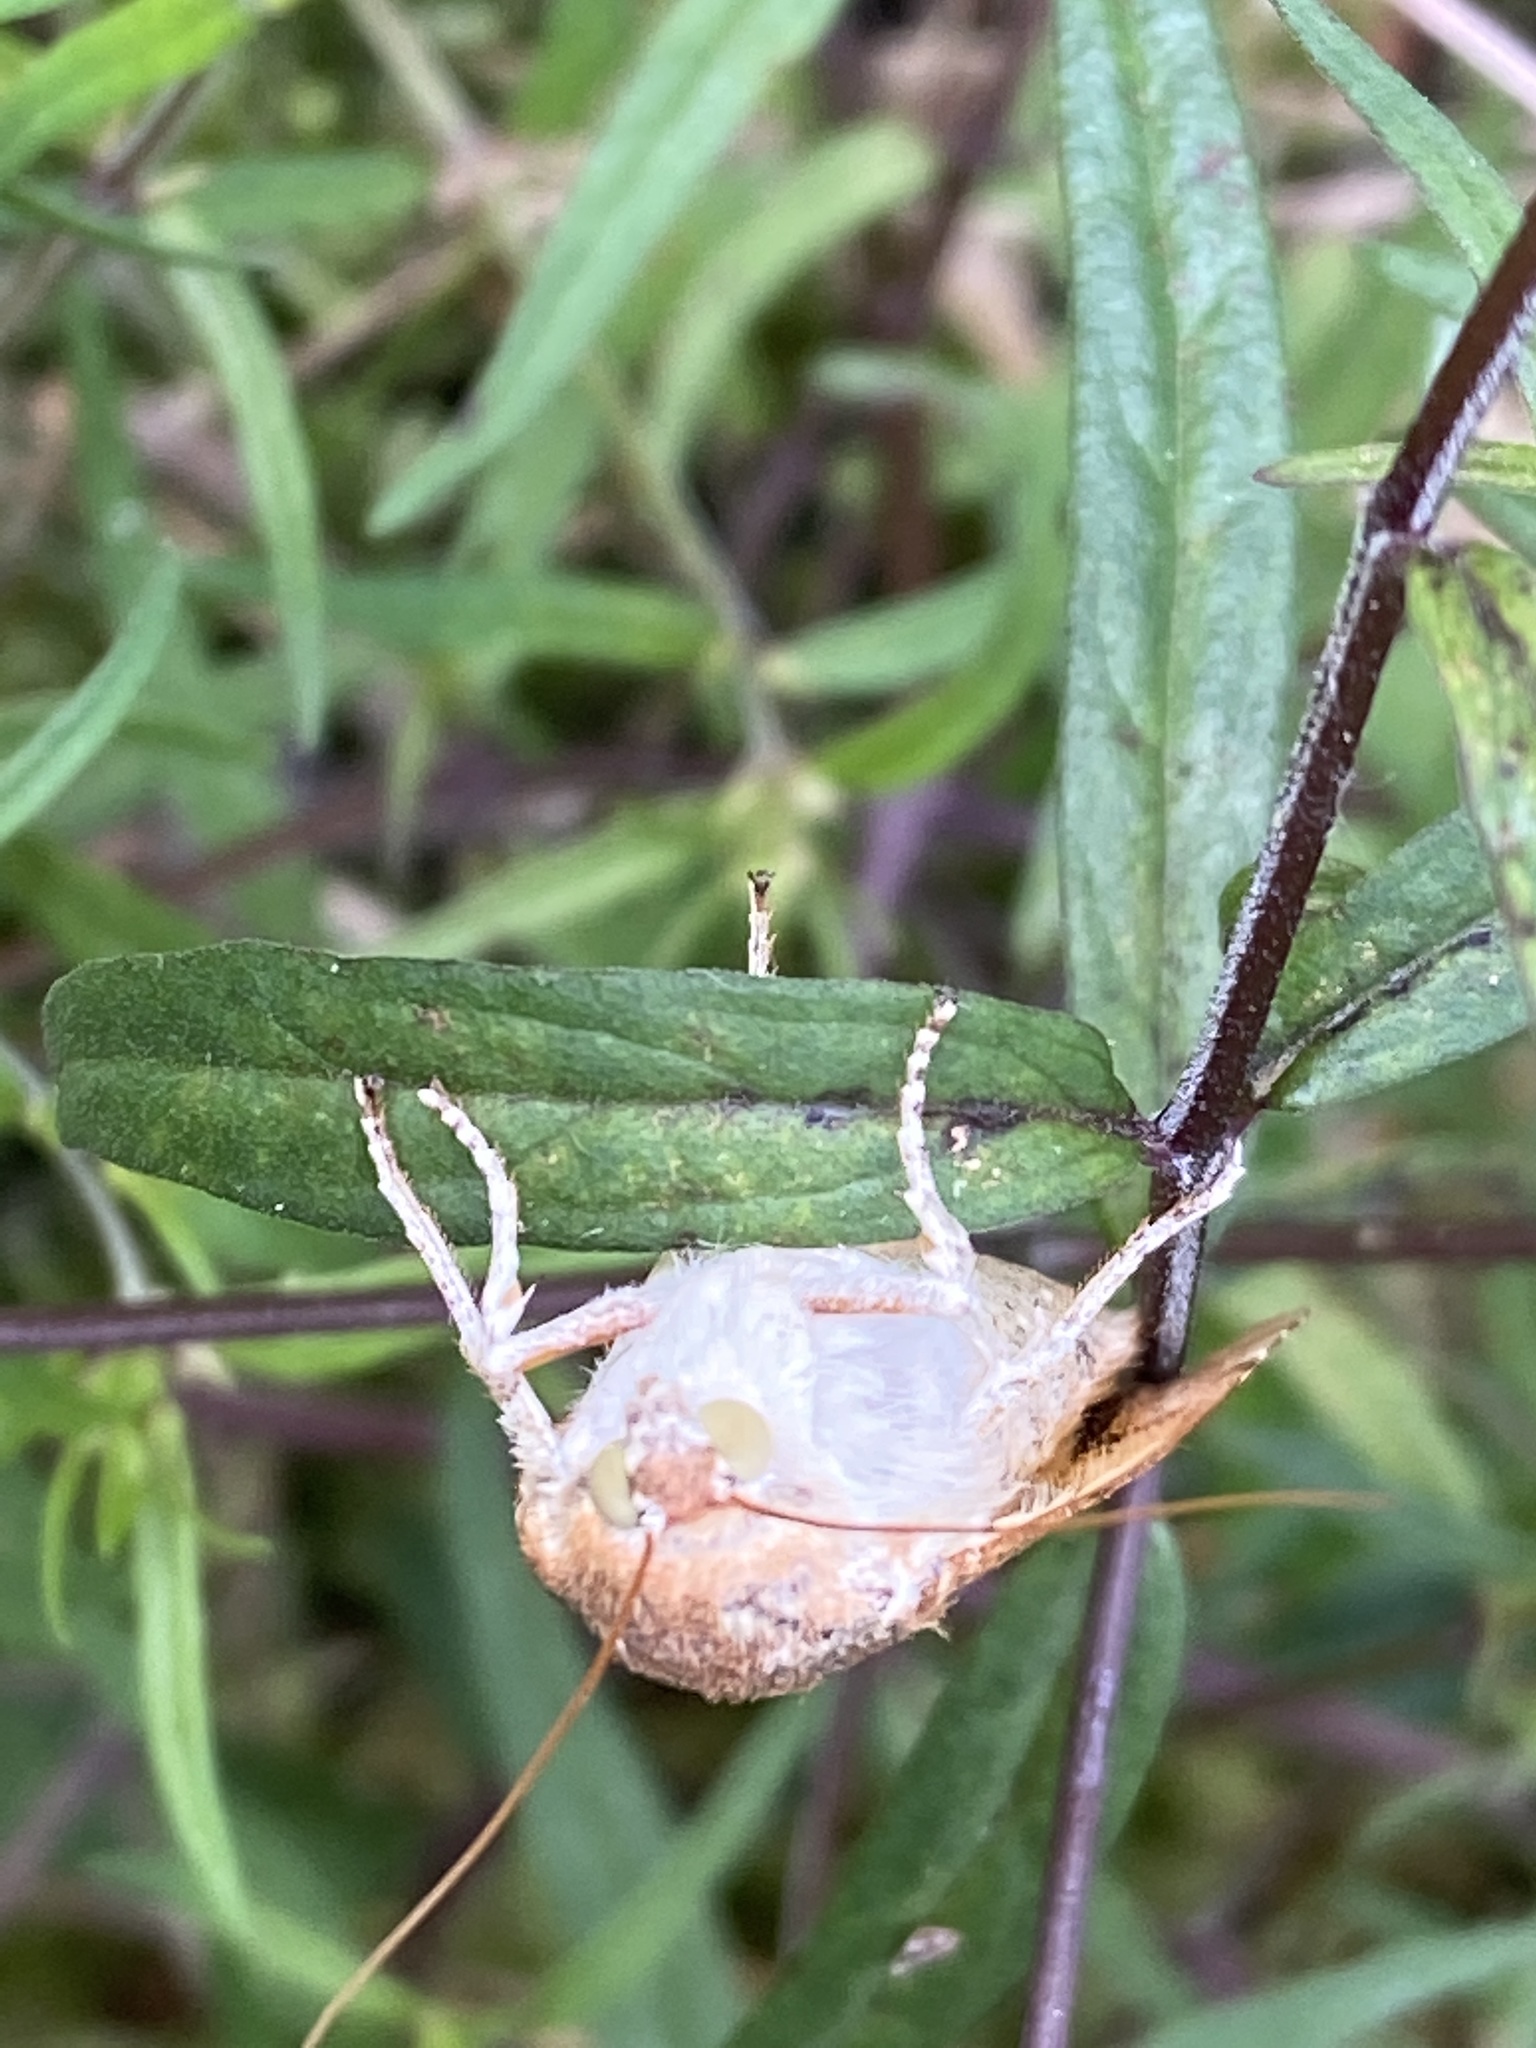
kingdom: Animalia
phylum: Arthropoda
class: Insecta
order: Lepidoptera
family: Noctuidae
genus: Noctua
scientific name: Noctua fimbriata
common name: Broad-bordered yellow underwing
